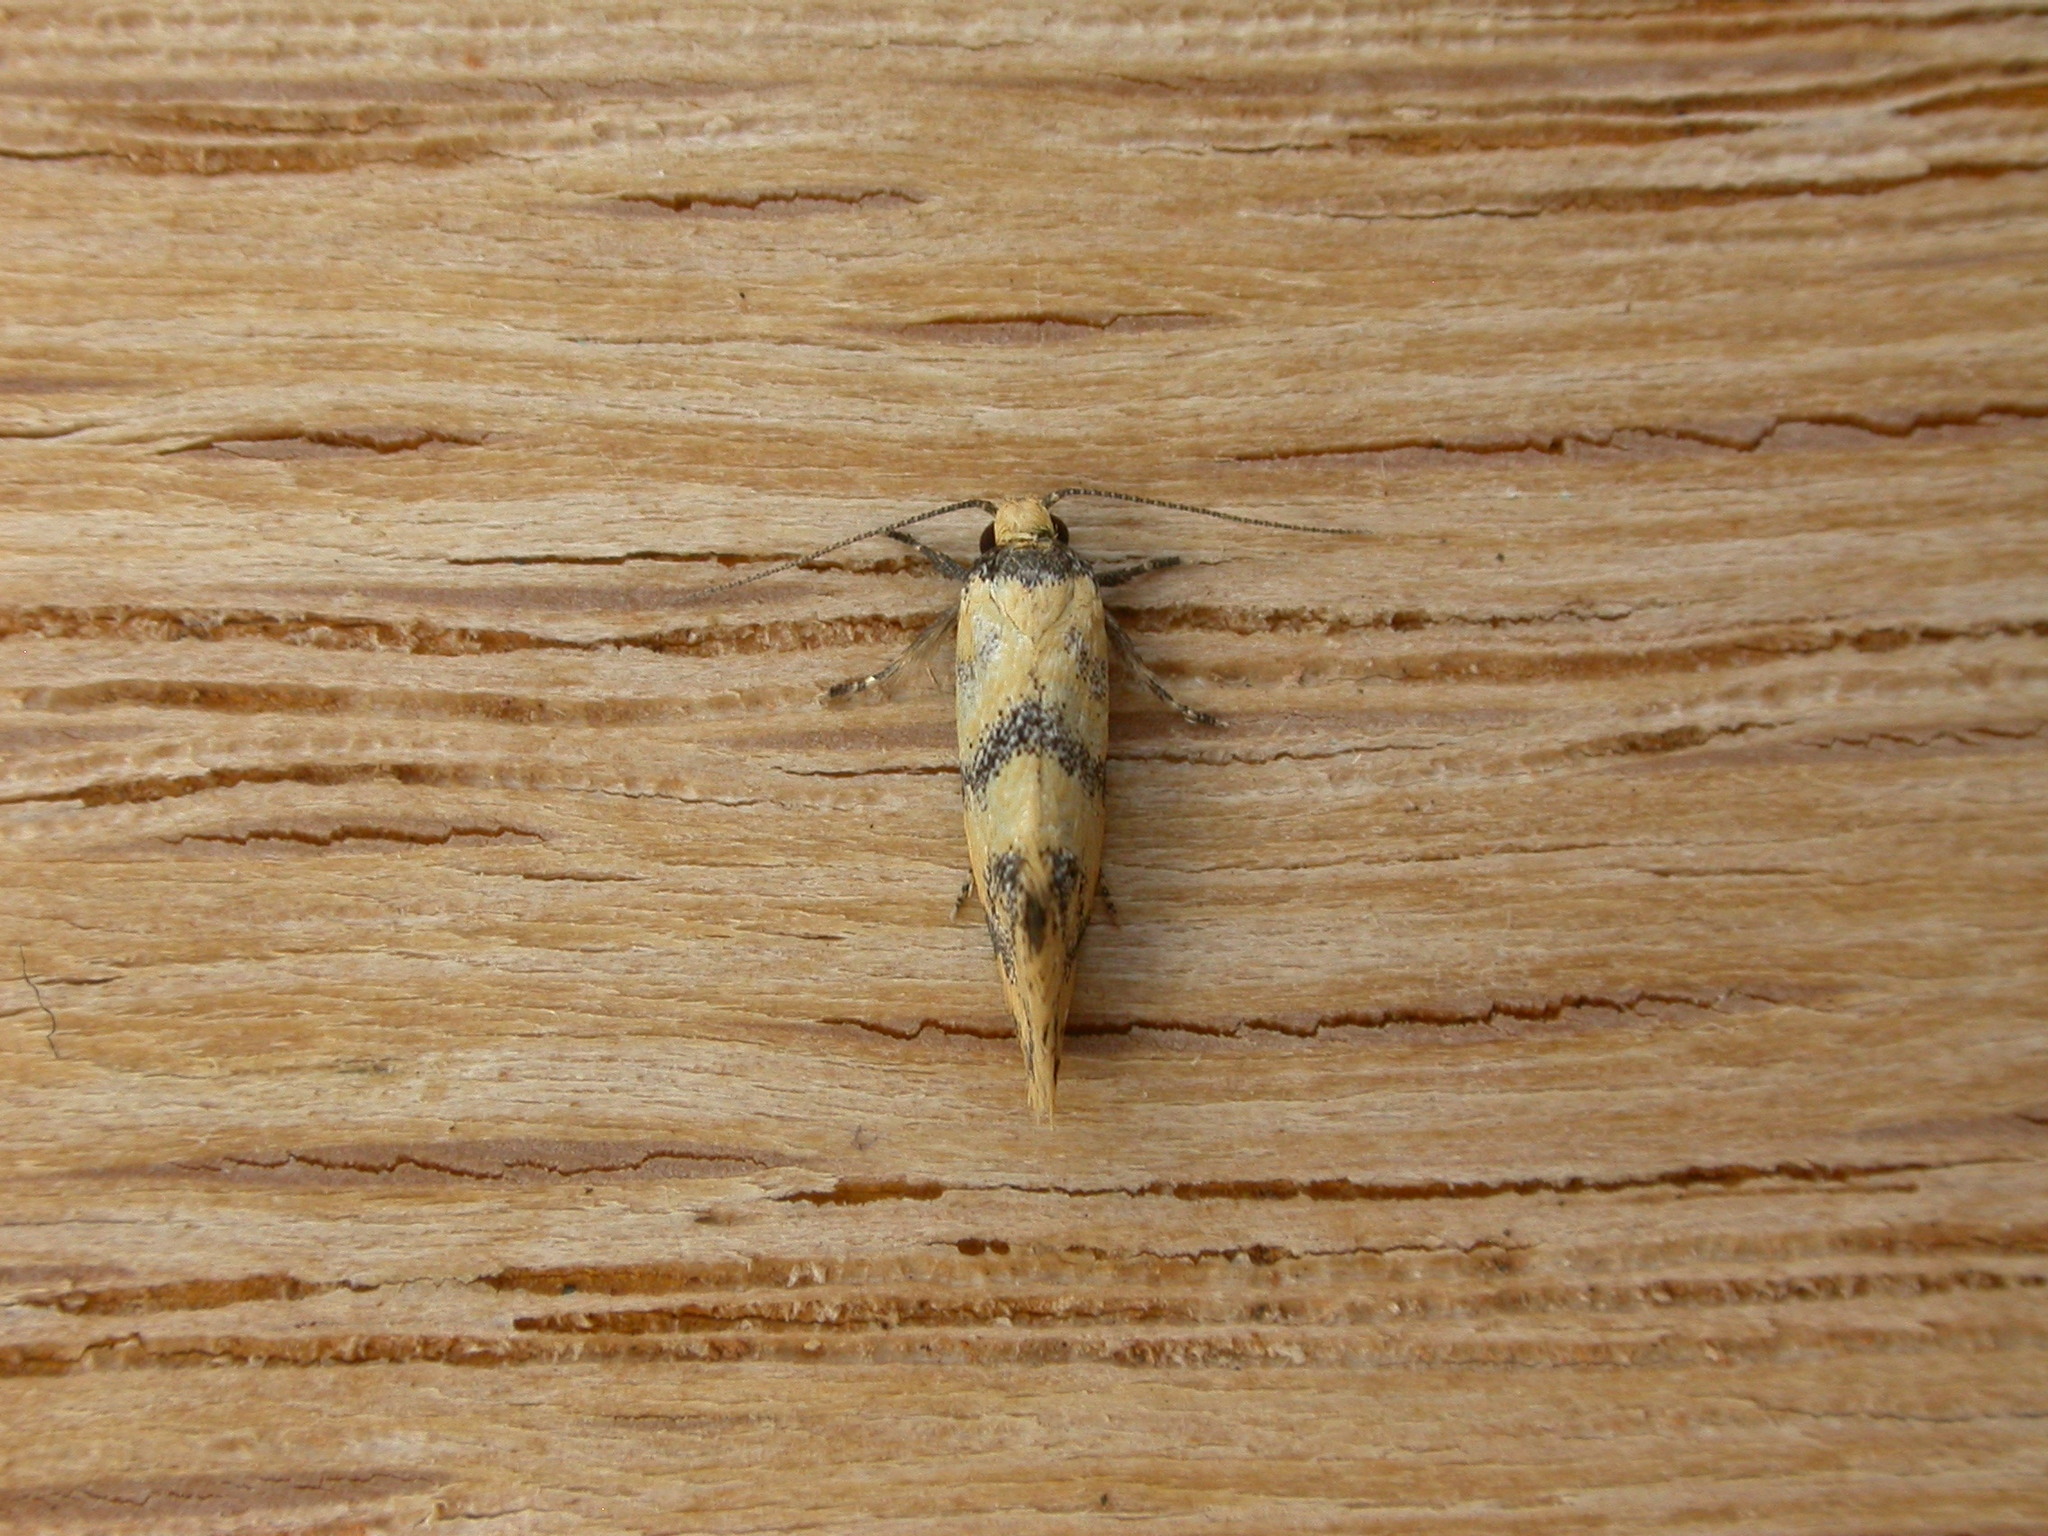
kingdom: Animalia
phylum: Arthropoda
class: Insecta
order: Lepidoptera
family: Oecophoridae
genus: Psaroxantha
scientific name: Psaroxantha calligenes
